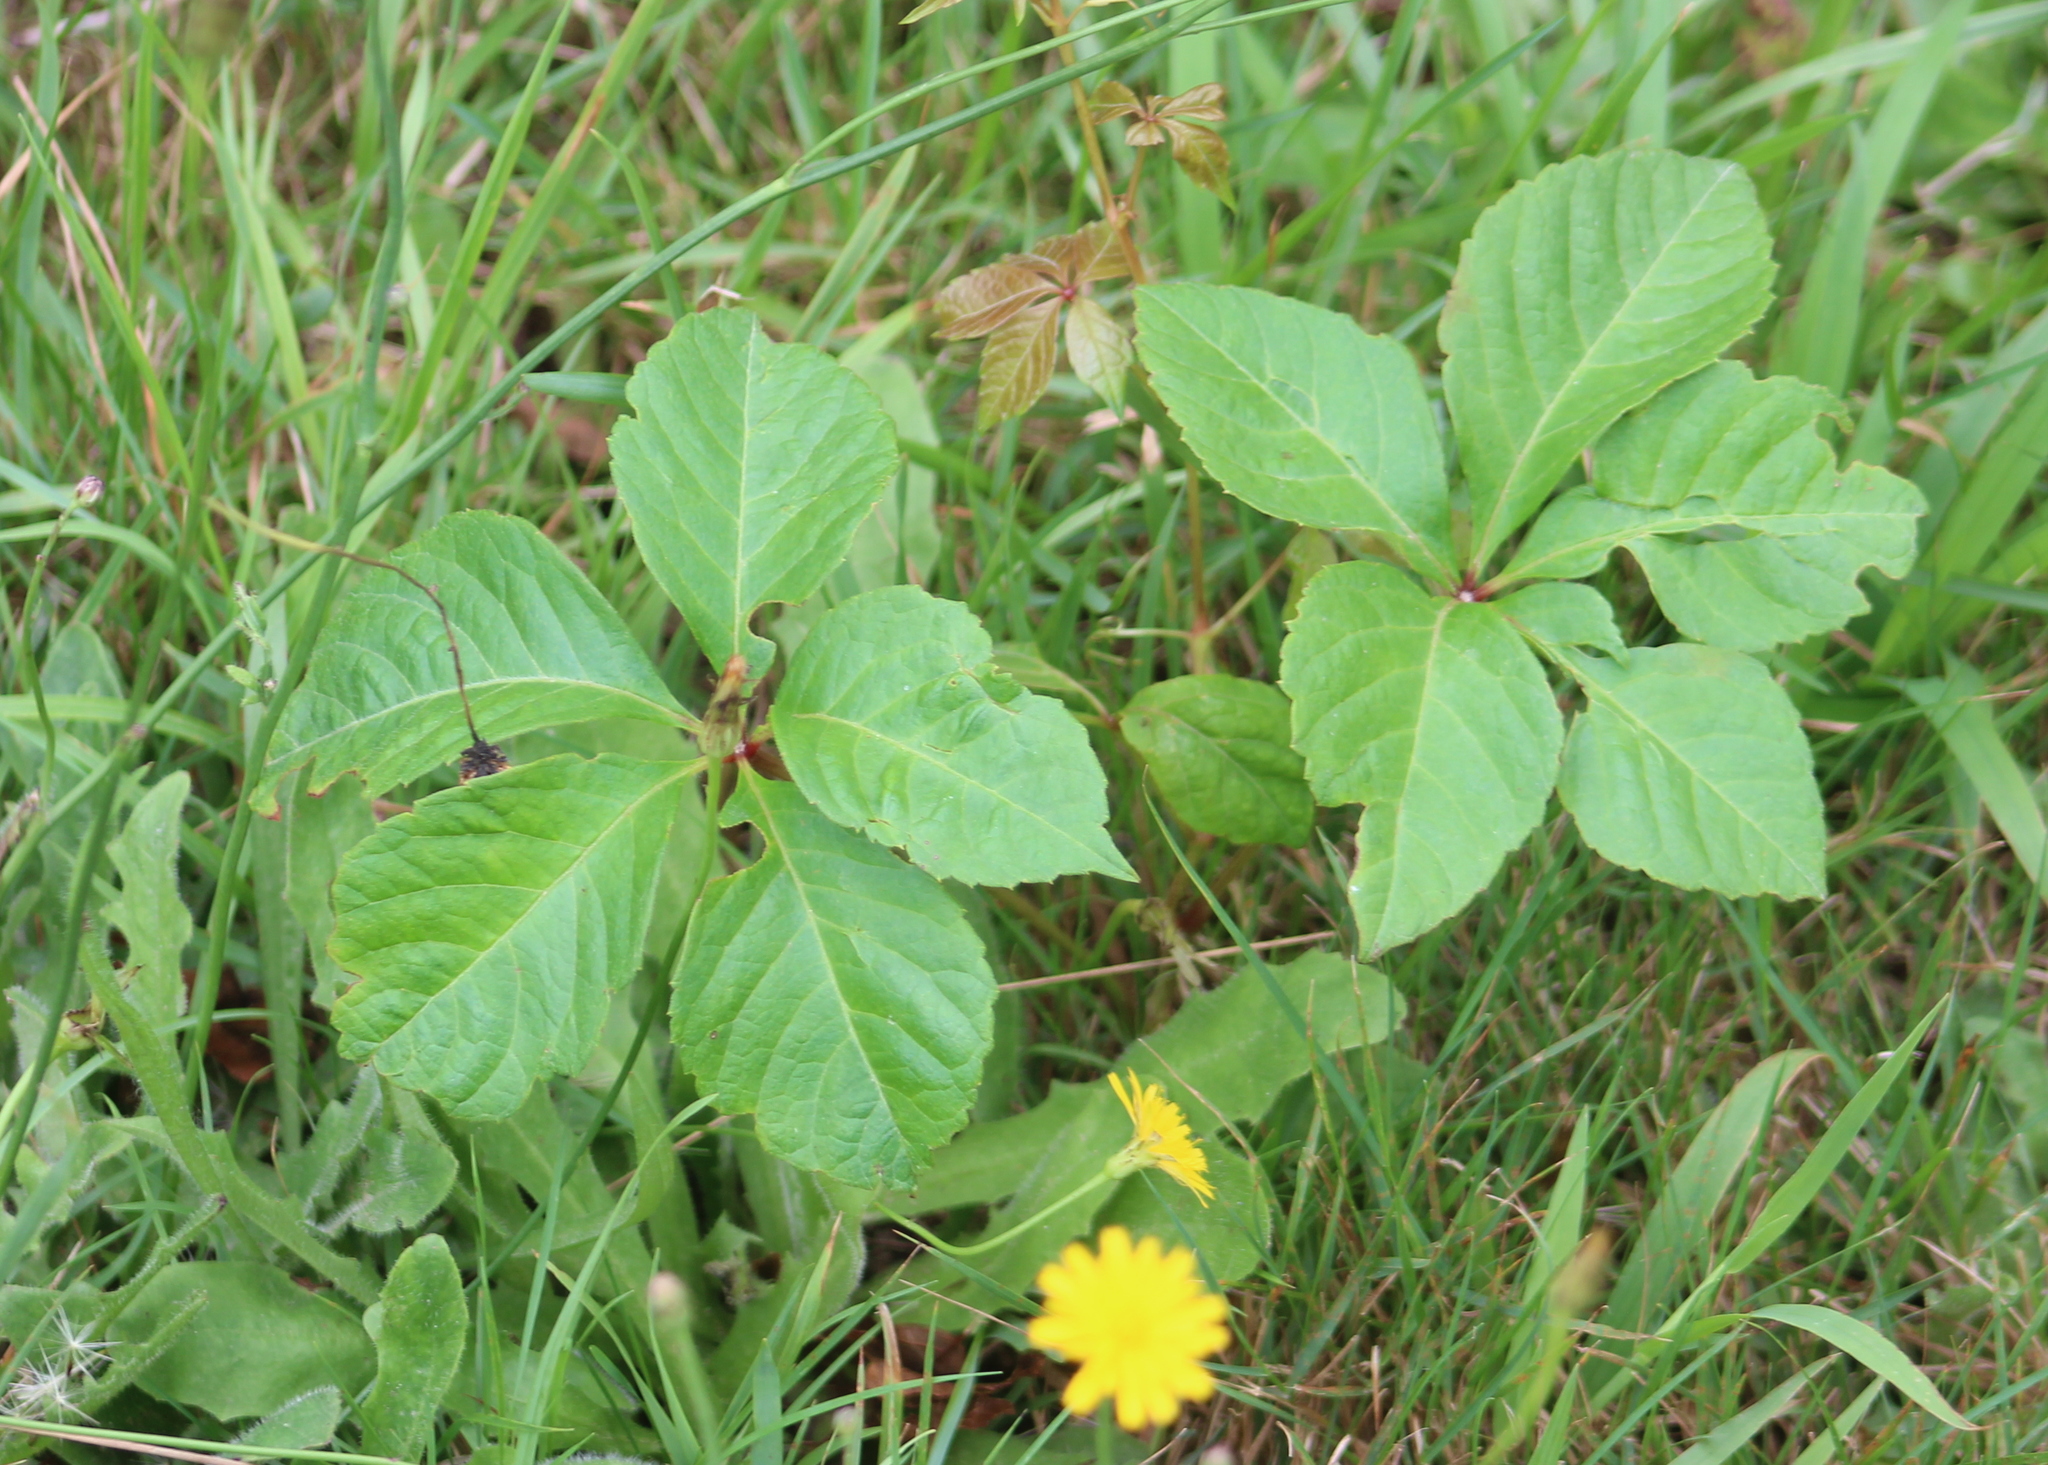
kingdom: Plantae
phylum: Tracheophyta
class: Magnoliopsida
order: Vitales
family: Vitaceae
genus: Parthenocissus
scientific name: Parthenocissus quinquefolia
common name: Virginia-creeper
